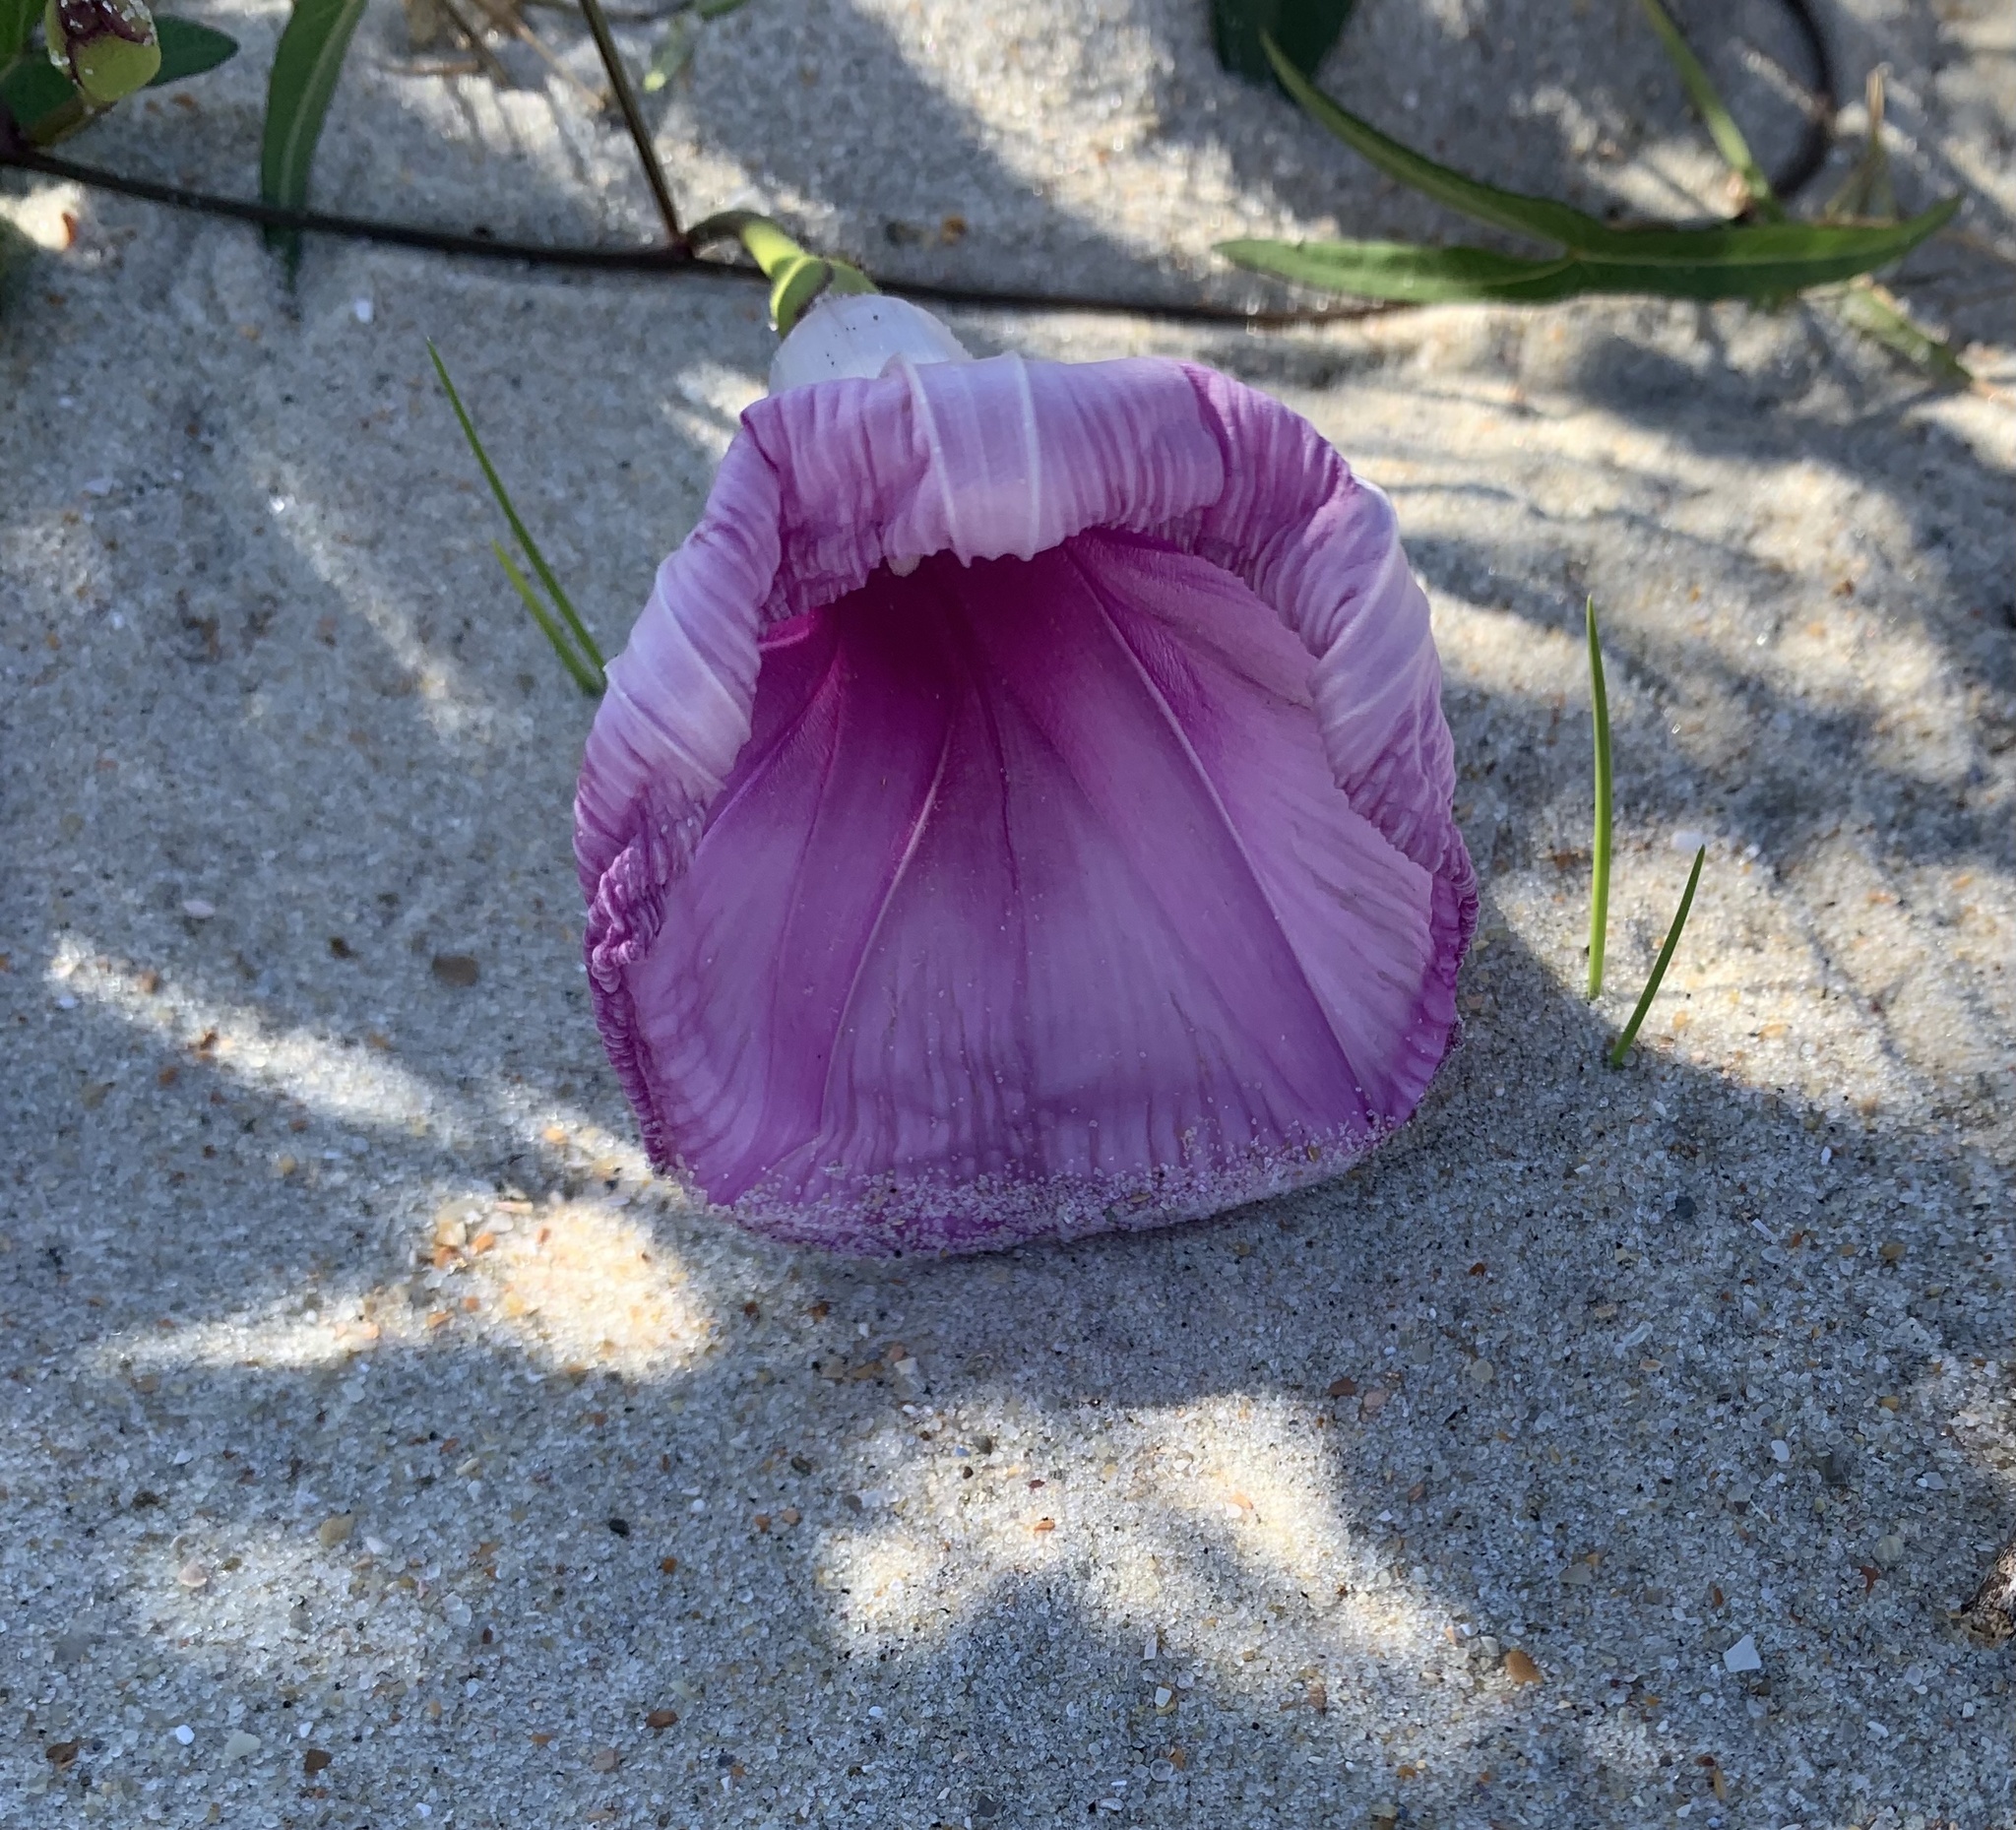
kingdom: Plantae
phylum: Tracheophyta
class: Magnoliopsida
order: Solanales
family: Convolvulaceae
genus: Ipomoea
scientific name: Ipomoea sagittata
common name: Saltmarsh morning glory
